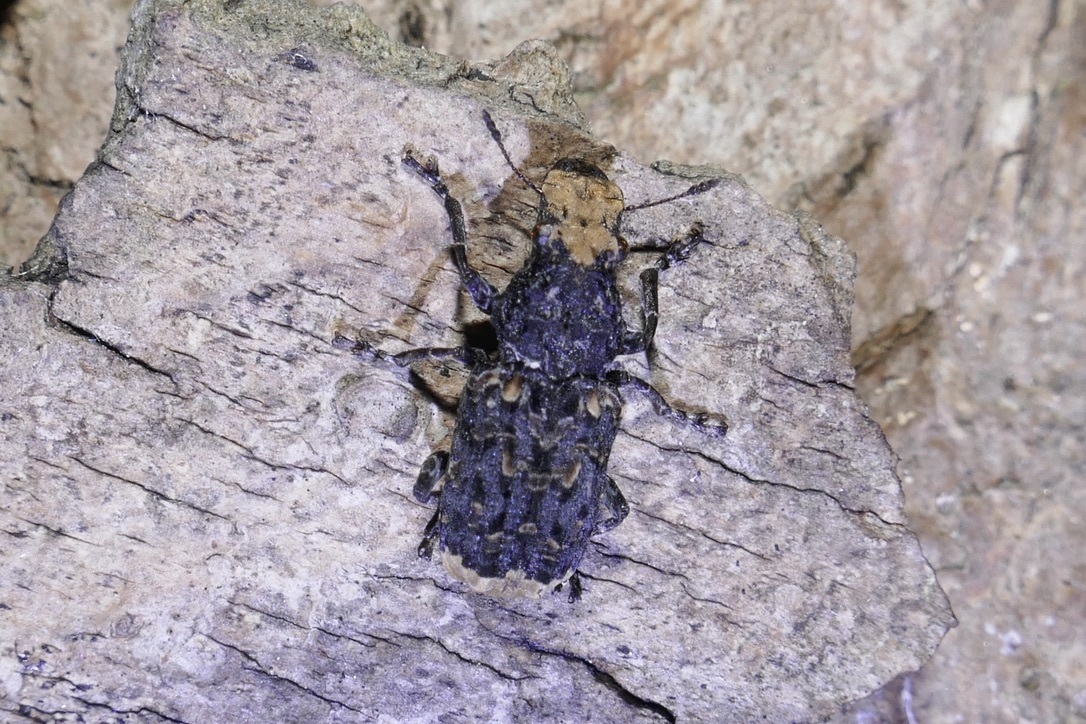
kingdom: Animalia
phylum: Arthropoda
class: Insecta
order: Coleoptera
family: Anthribidae
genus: Platyrhinus
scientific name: Platyrhinus resinosus
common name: Cramp-ball fungus weevil
